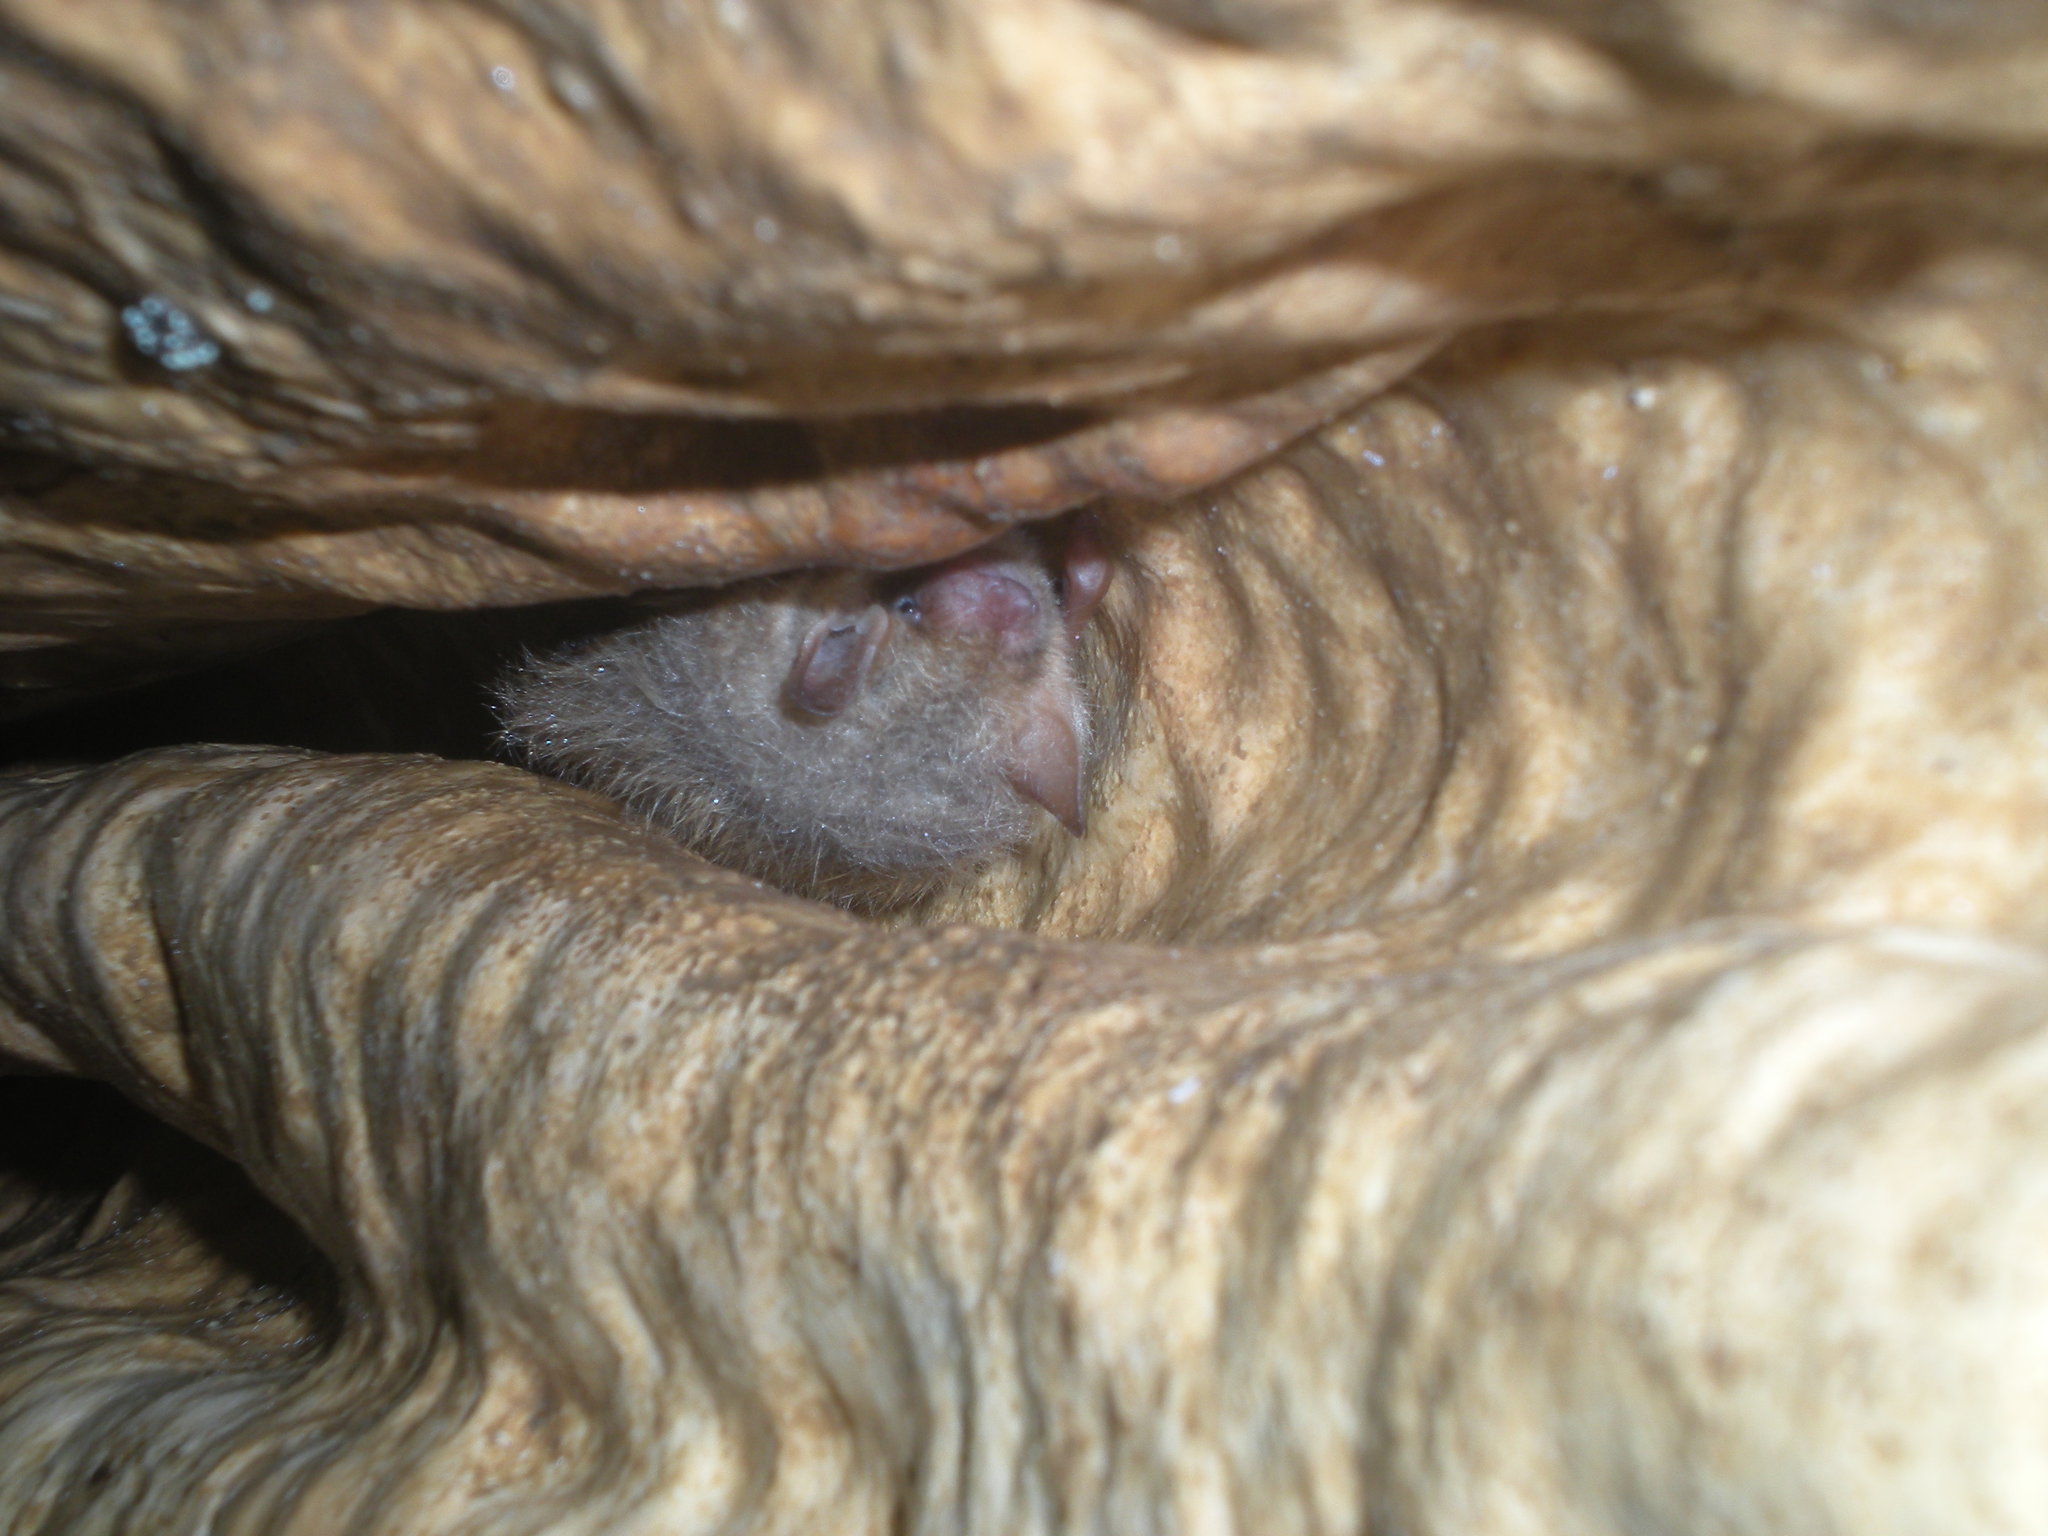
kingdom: Animalia
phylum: Chordata
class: Mammalia
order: Chiroptera
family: Vespertilionidae
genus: Perimyotis
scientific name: Perimyotis subflavus
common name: Eastern pipistrelle
